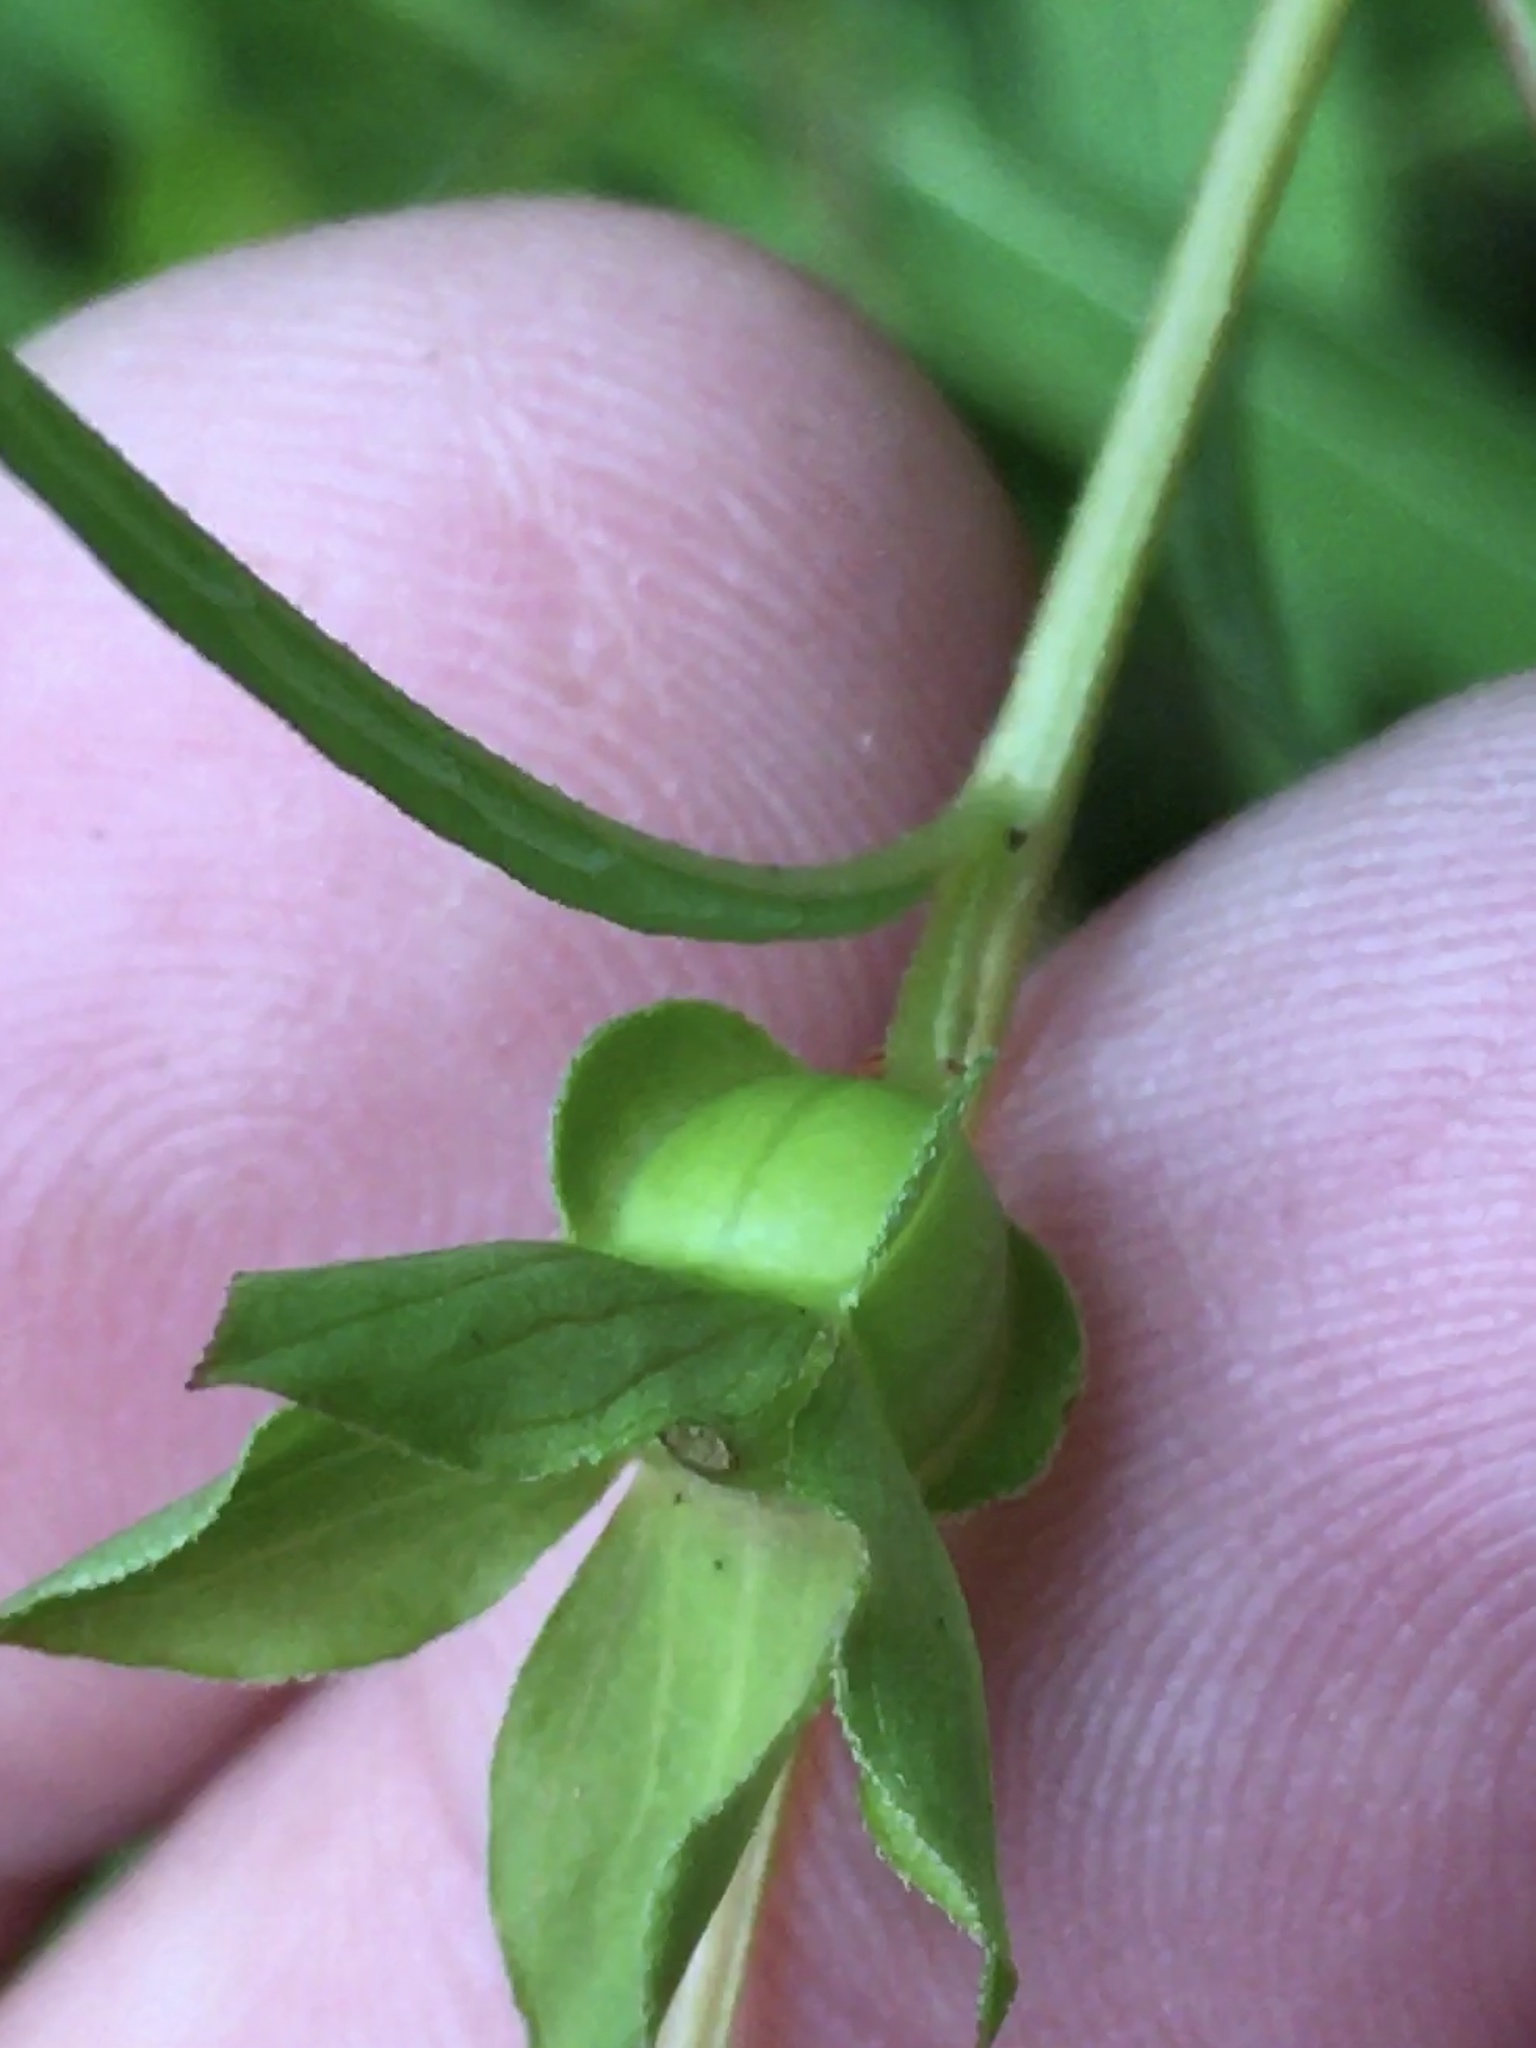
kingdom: Plantae
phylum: Tracheophyta
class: Magnoliopsida
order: Myrtales
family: Onagraceae
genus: Ludwigia
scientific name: Ludwigia alternifolia
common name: Rattlebox
